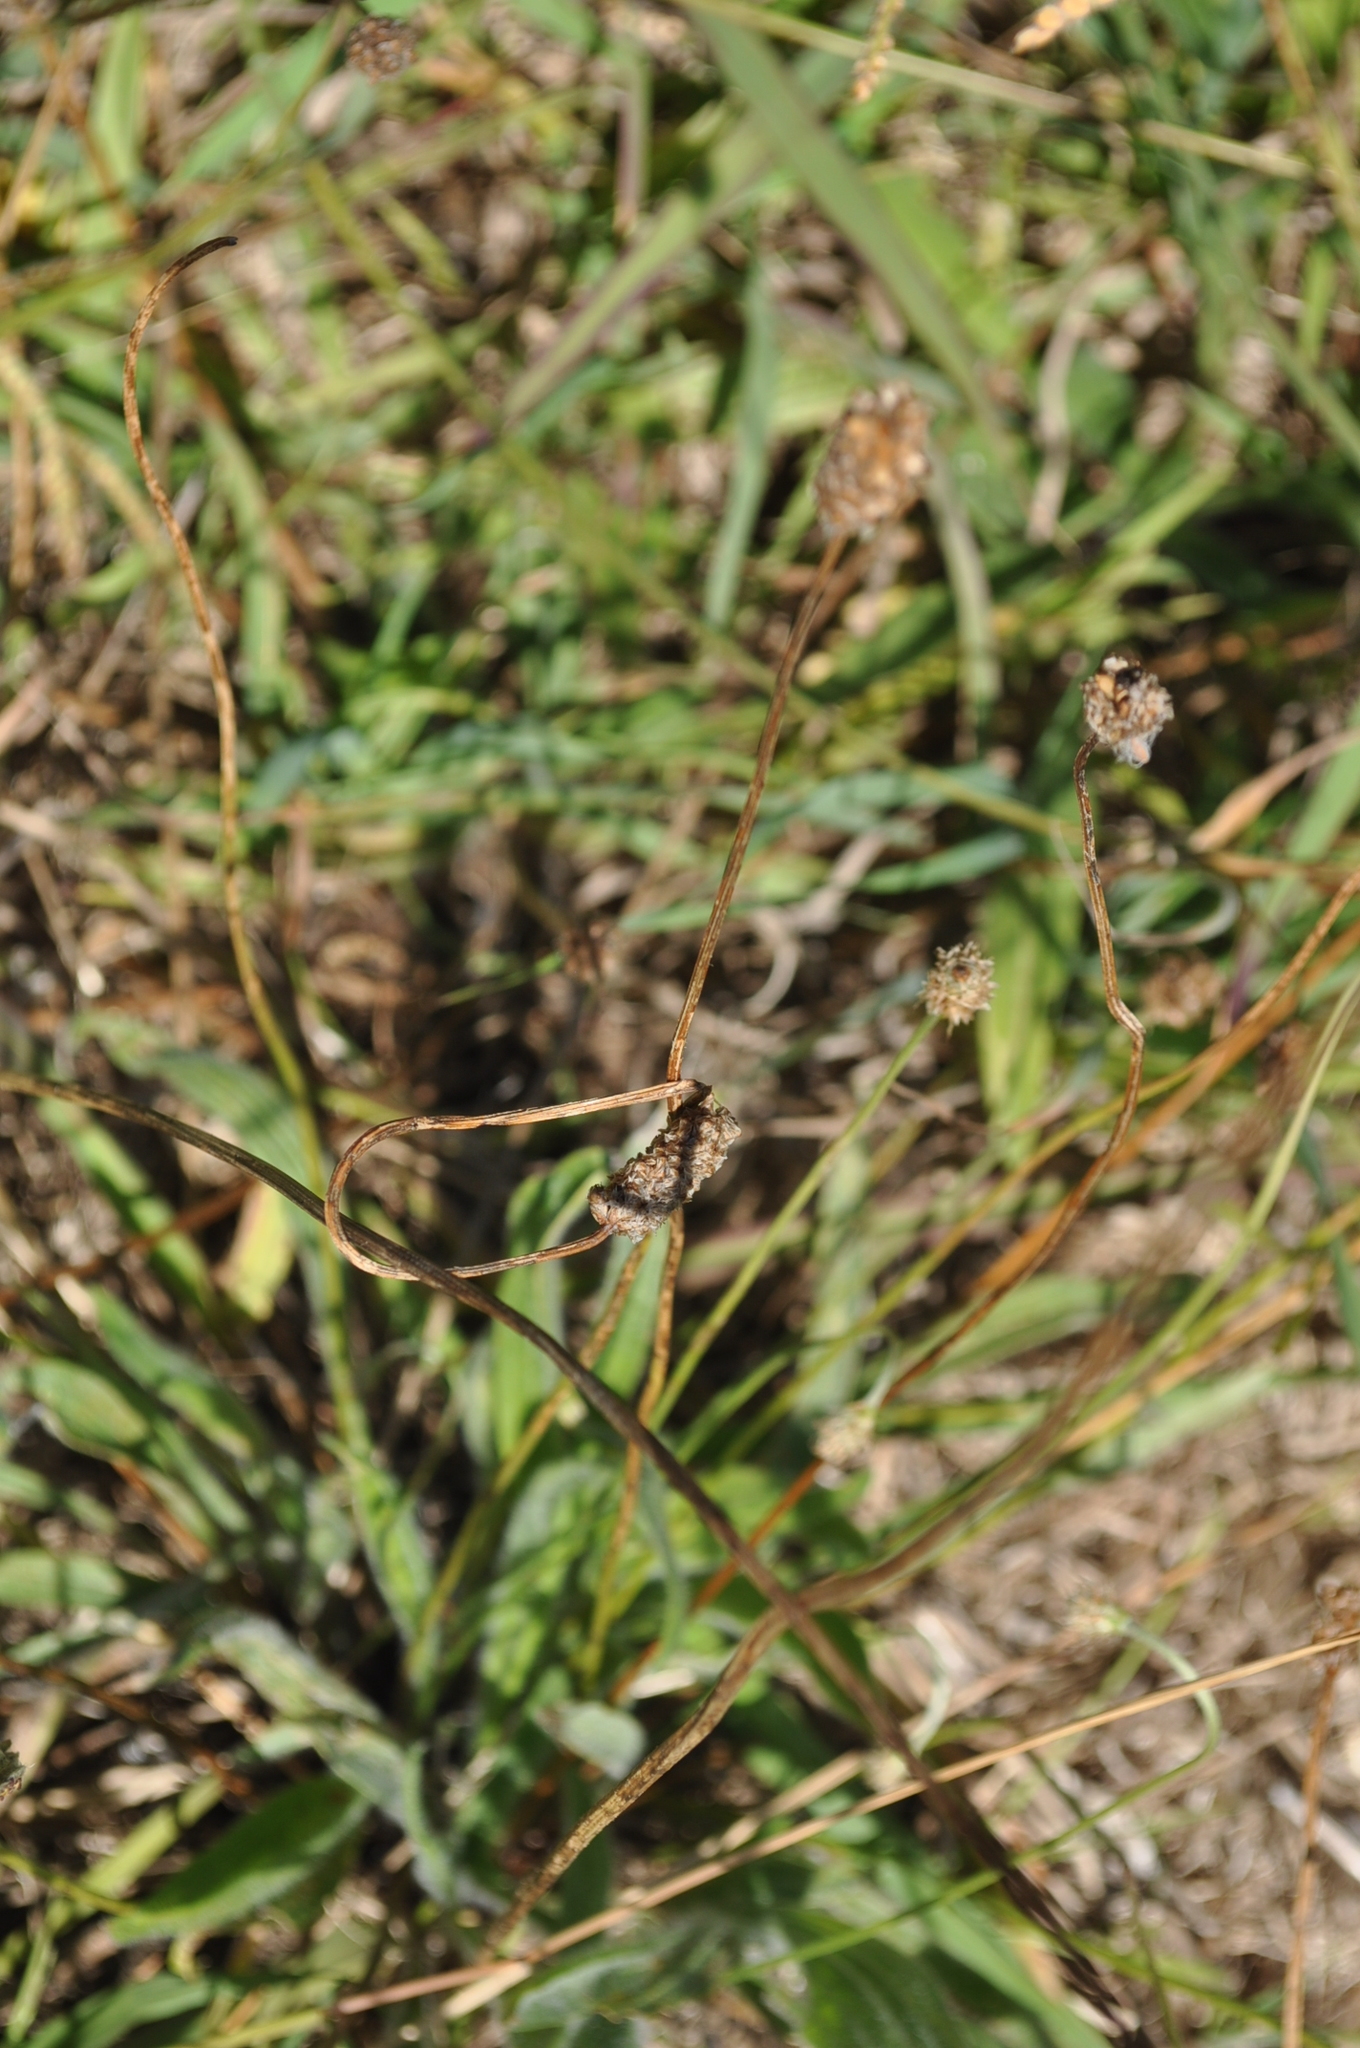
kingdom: Plantae
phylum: Tracheophyta
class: Magnoliopsida
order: Lamiales
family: Plantaginaceae
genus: Plantago
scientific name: Plantago lanceolata
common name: Ribwort plantain
